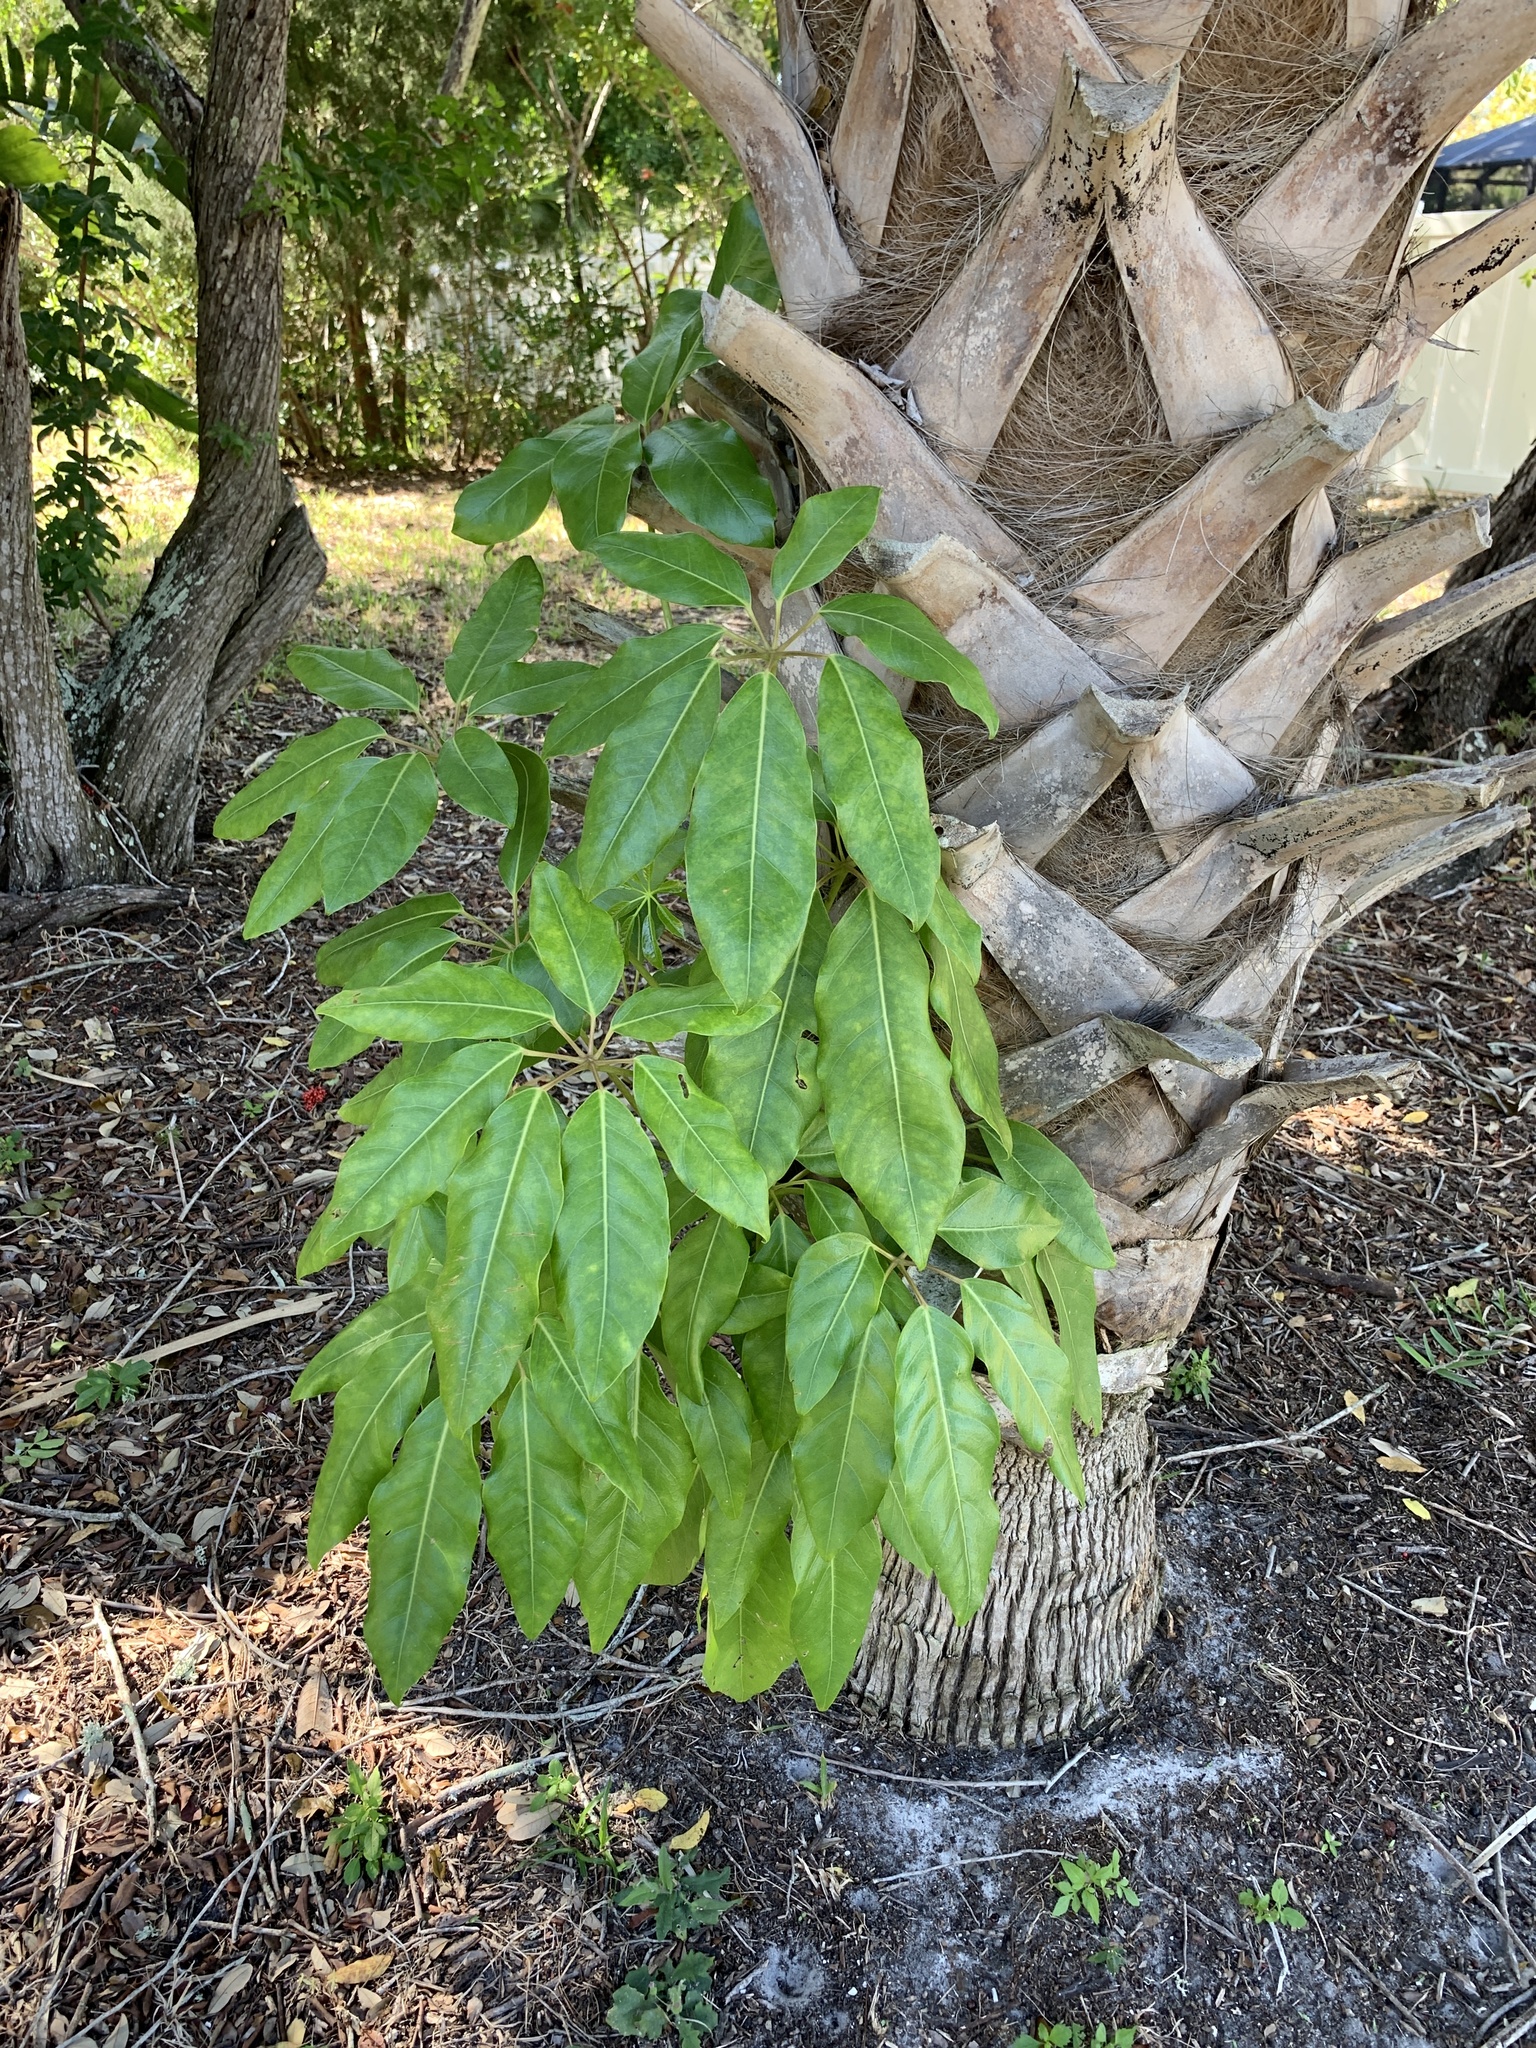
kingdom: Plantae
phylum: Tracheophyta
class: Magnoliopsida
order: Apiales
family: Araliaceae
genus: Heptapleurum
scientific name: Heptapleurum actinophyllum
